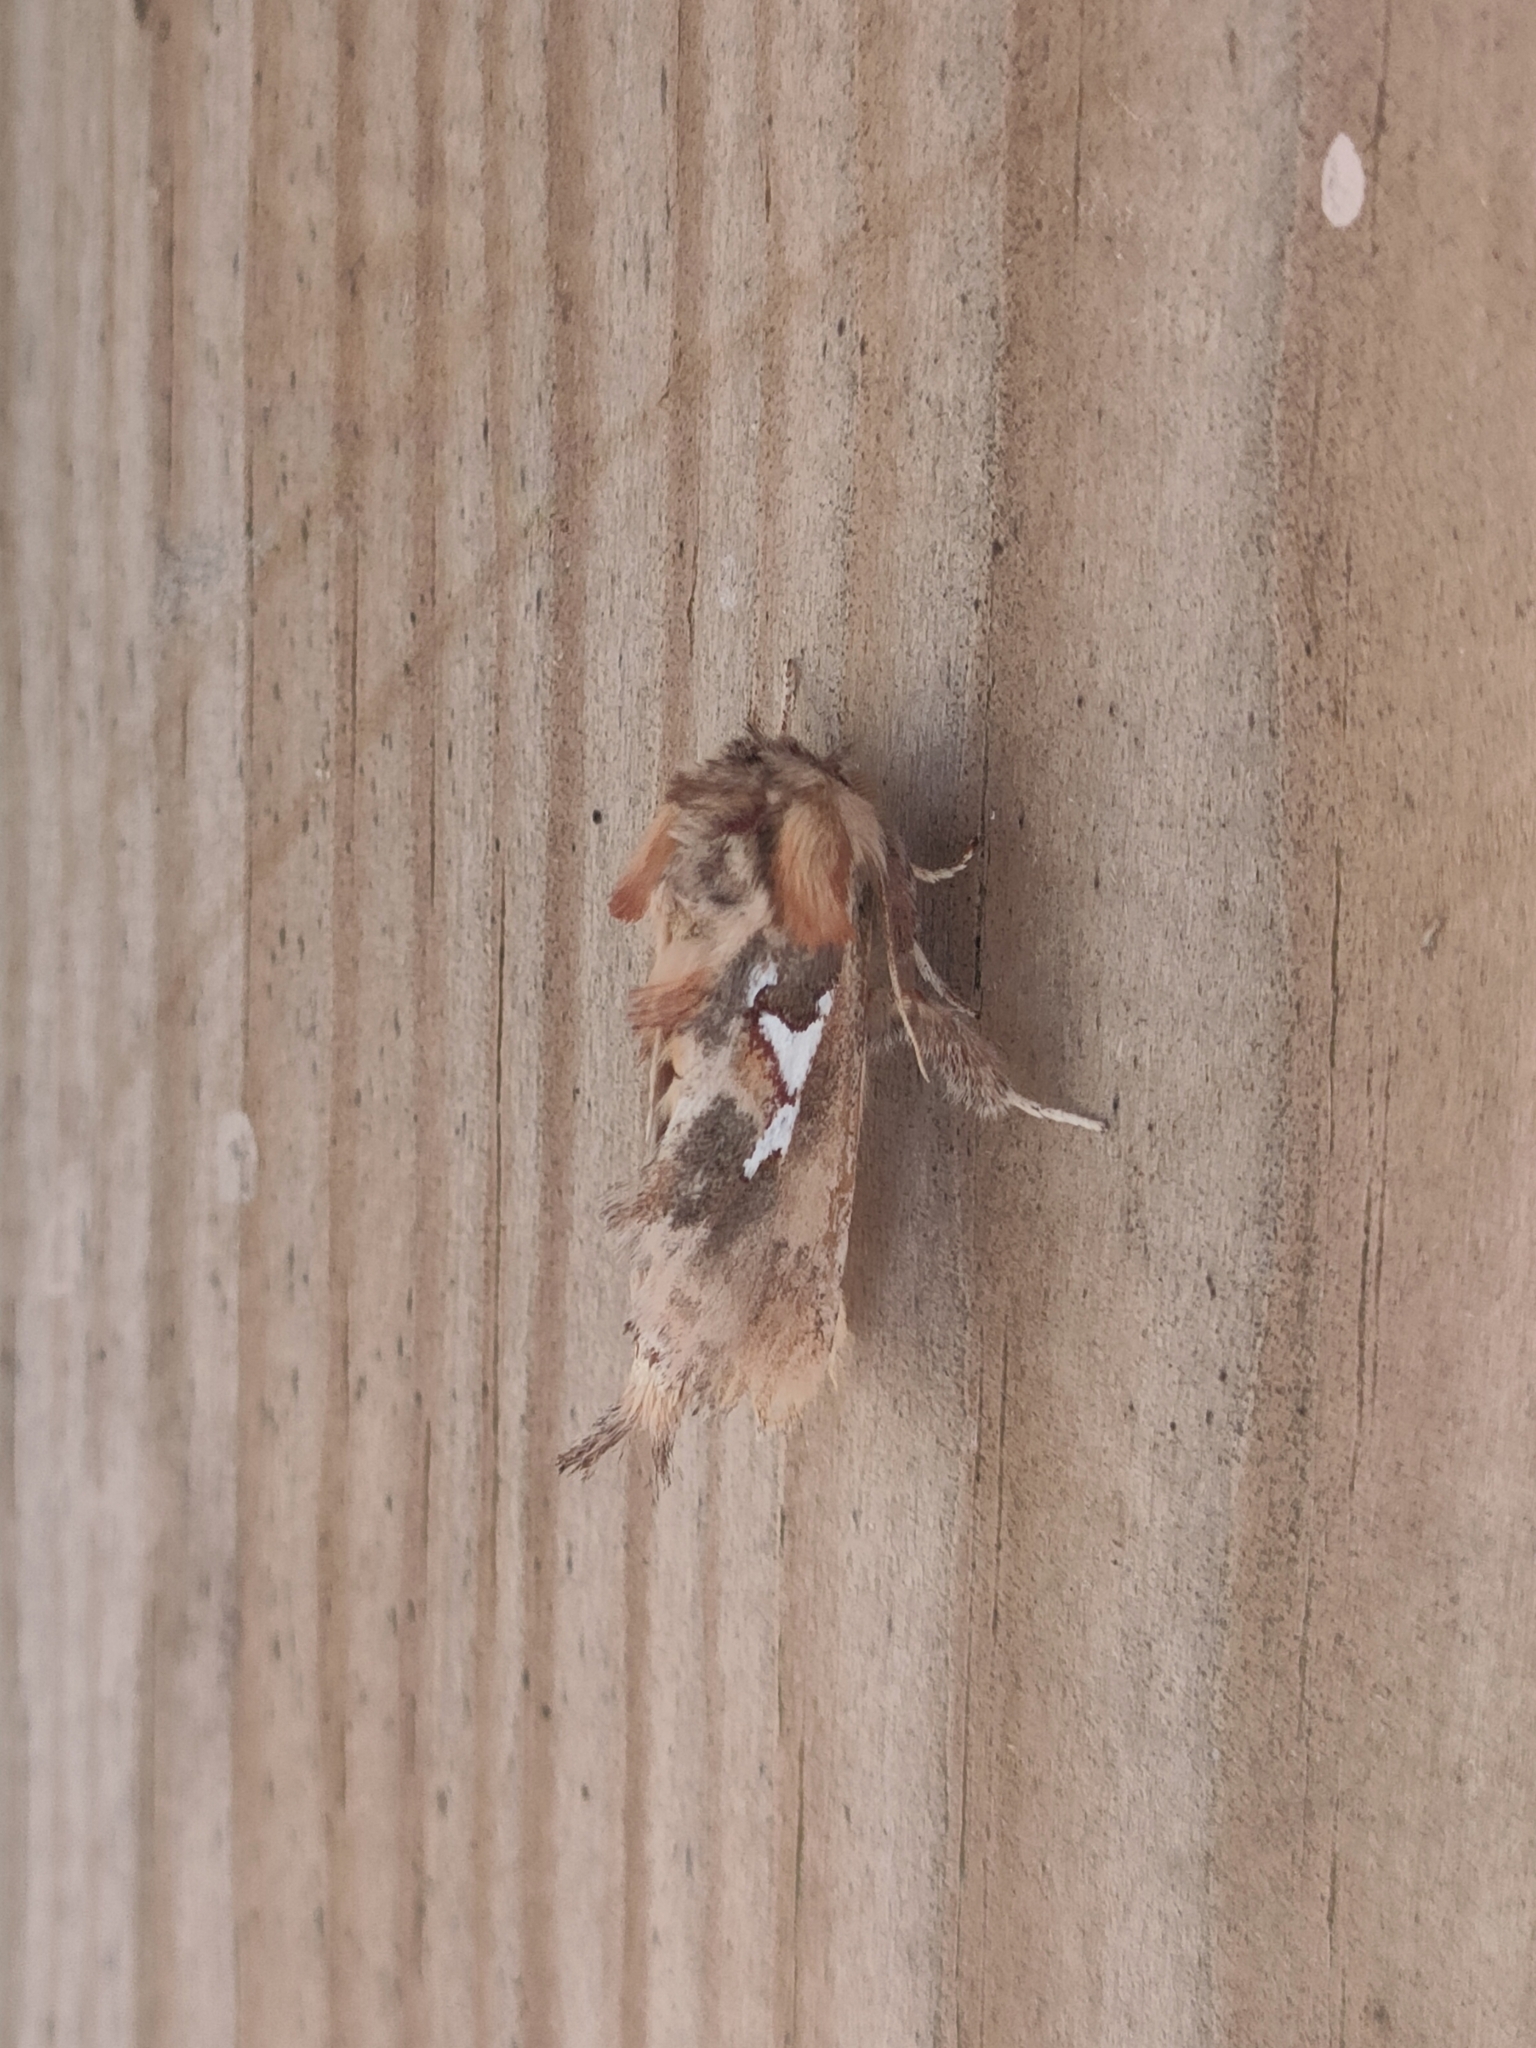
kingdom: Animalia
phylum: Arthropoda
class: Insecta
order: Lepidoptera
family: Notodontidae
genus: Spatalia
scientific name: Spatalia argentina
